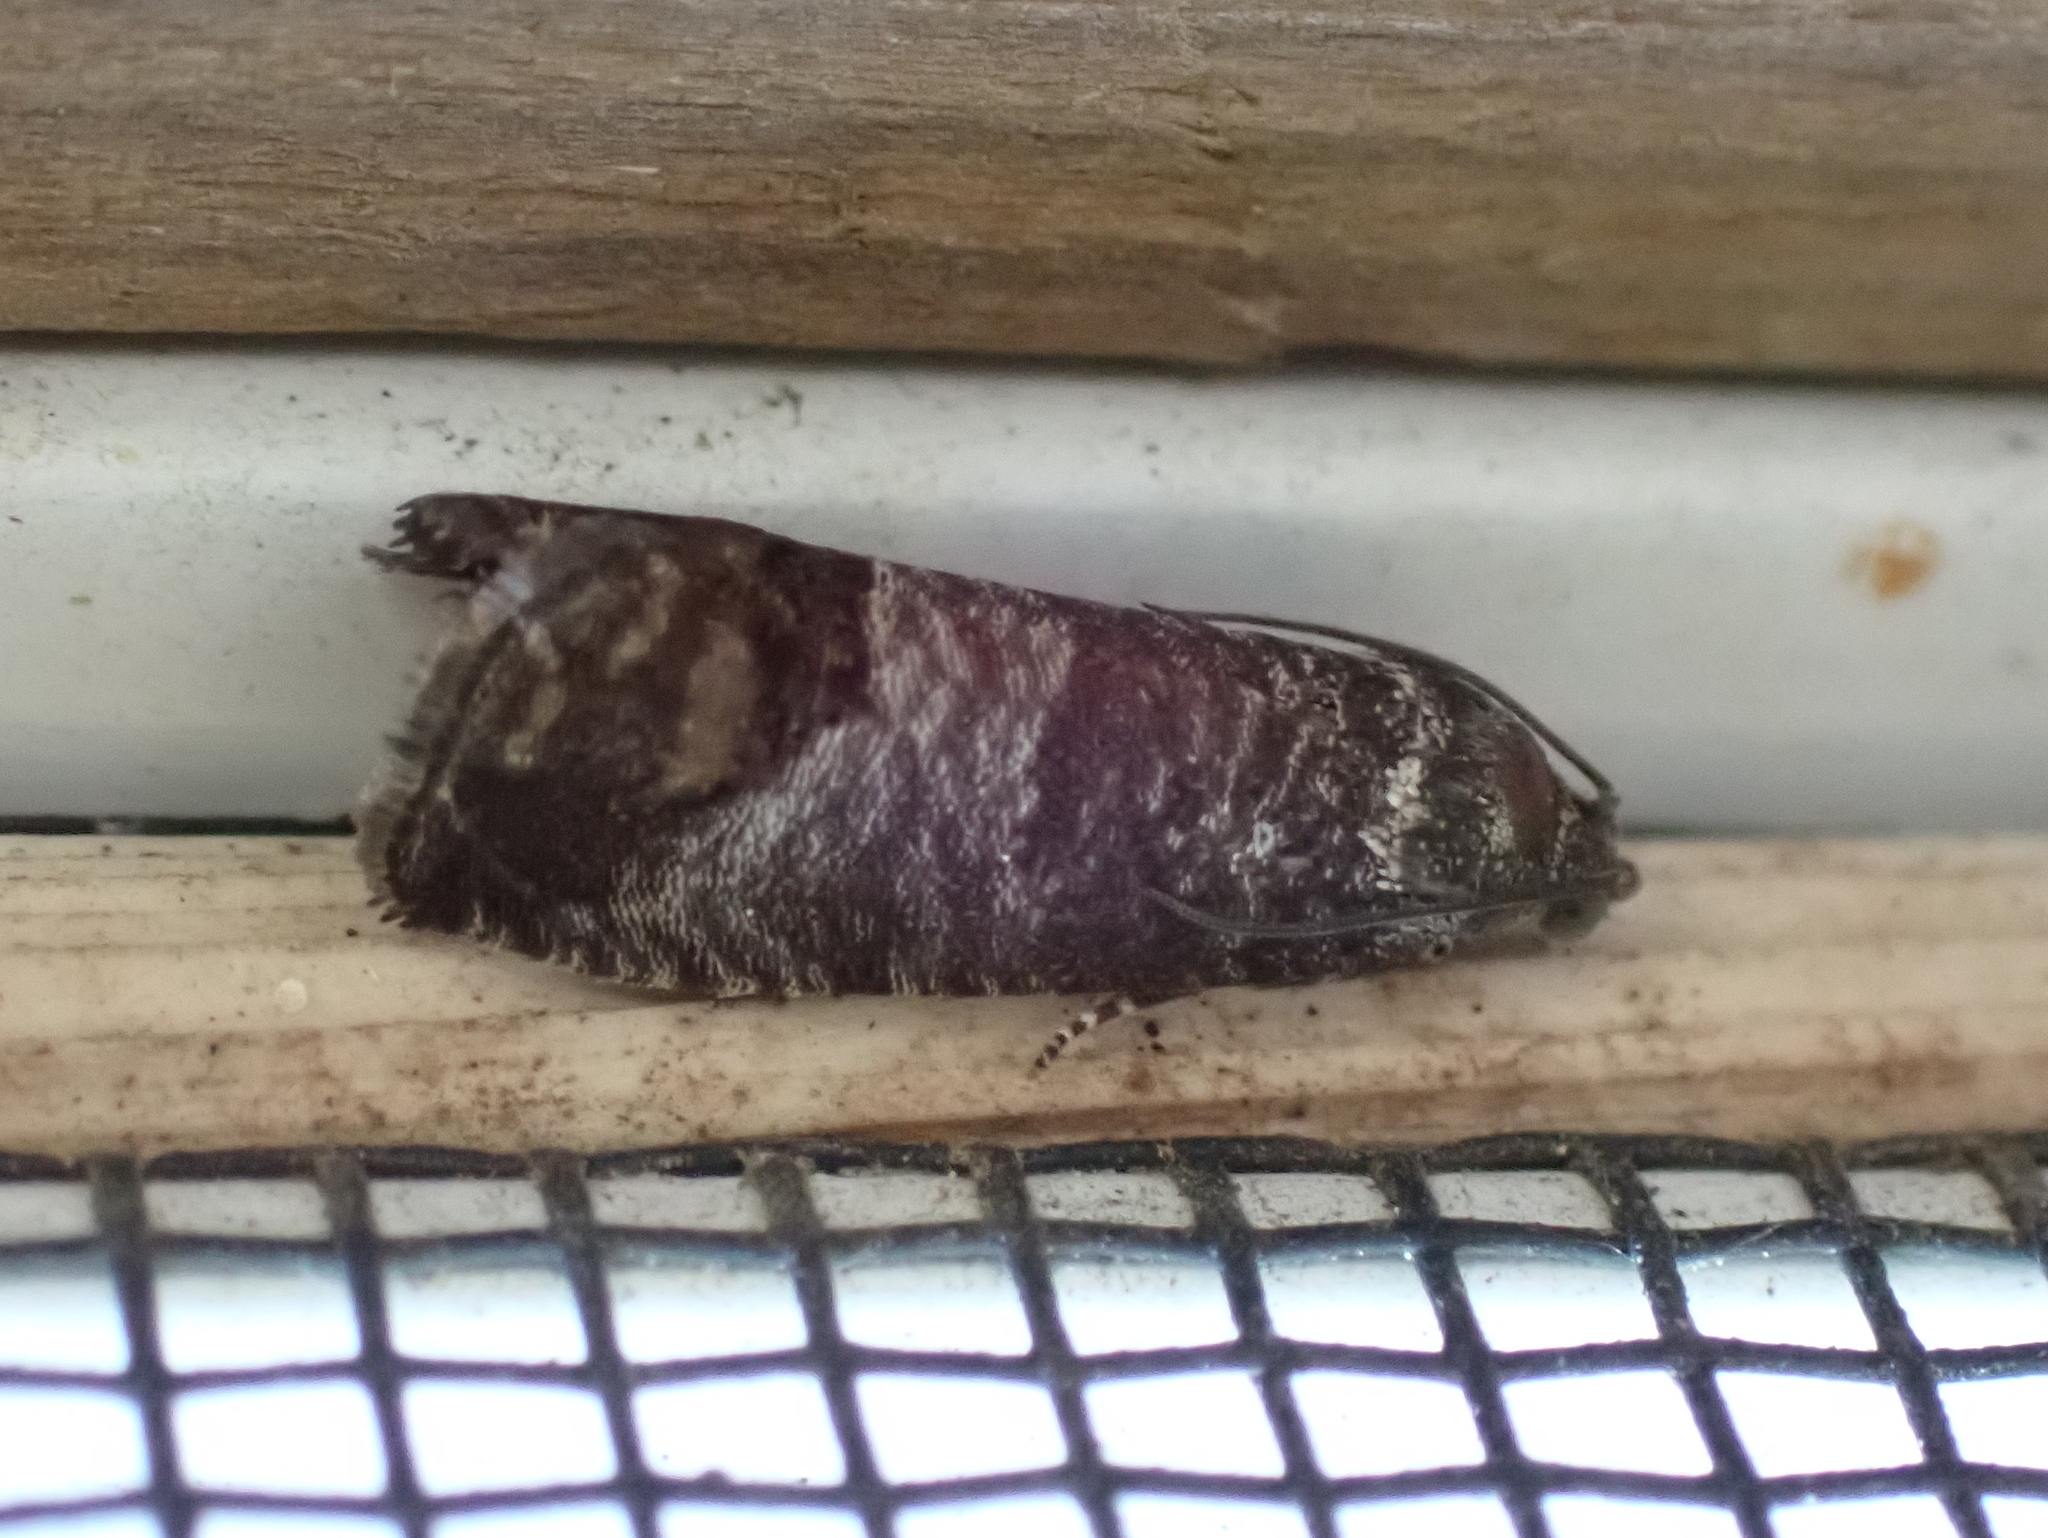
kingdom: Animalia
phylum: Arthropoda
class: Insecta
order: Lepidoptera
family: Tortricidae
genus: Cydia
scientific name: Cydia pomonella
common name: Codling moth
